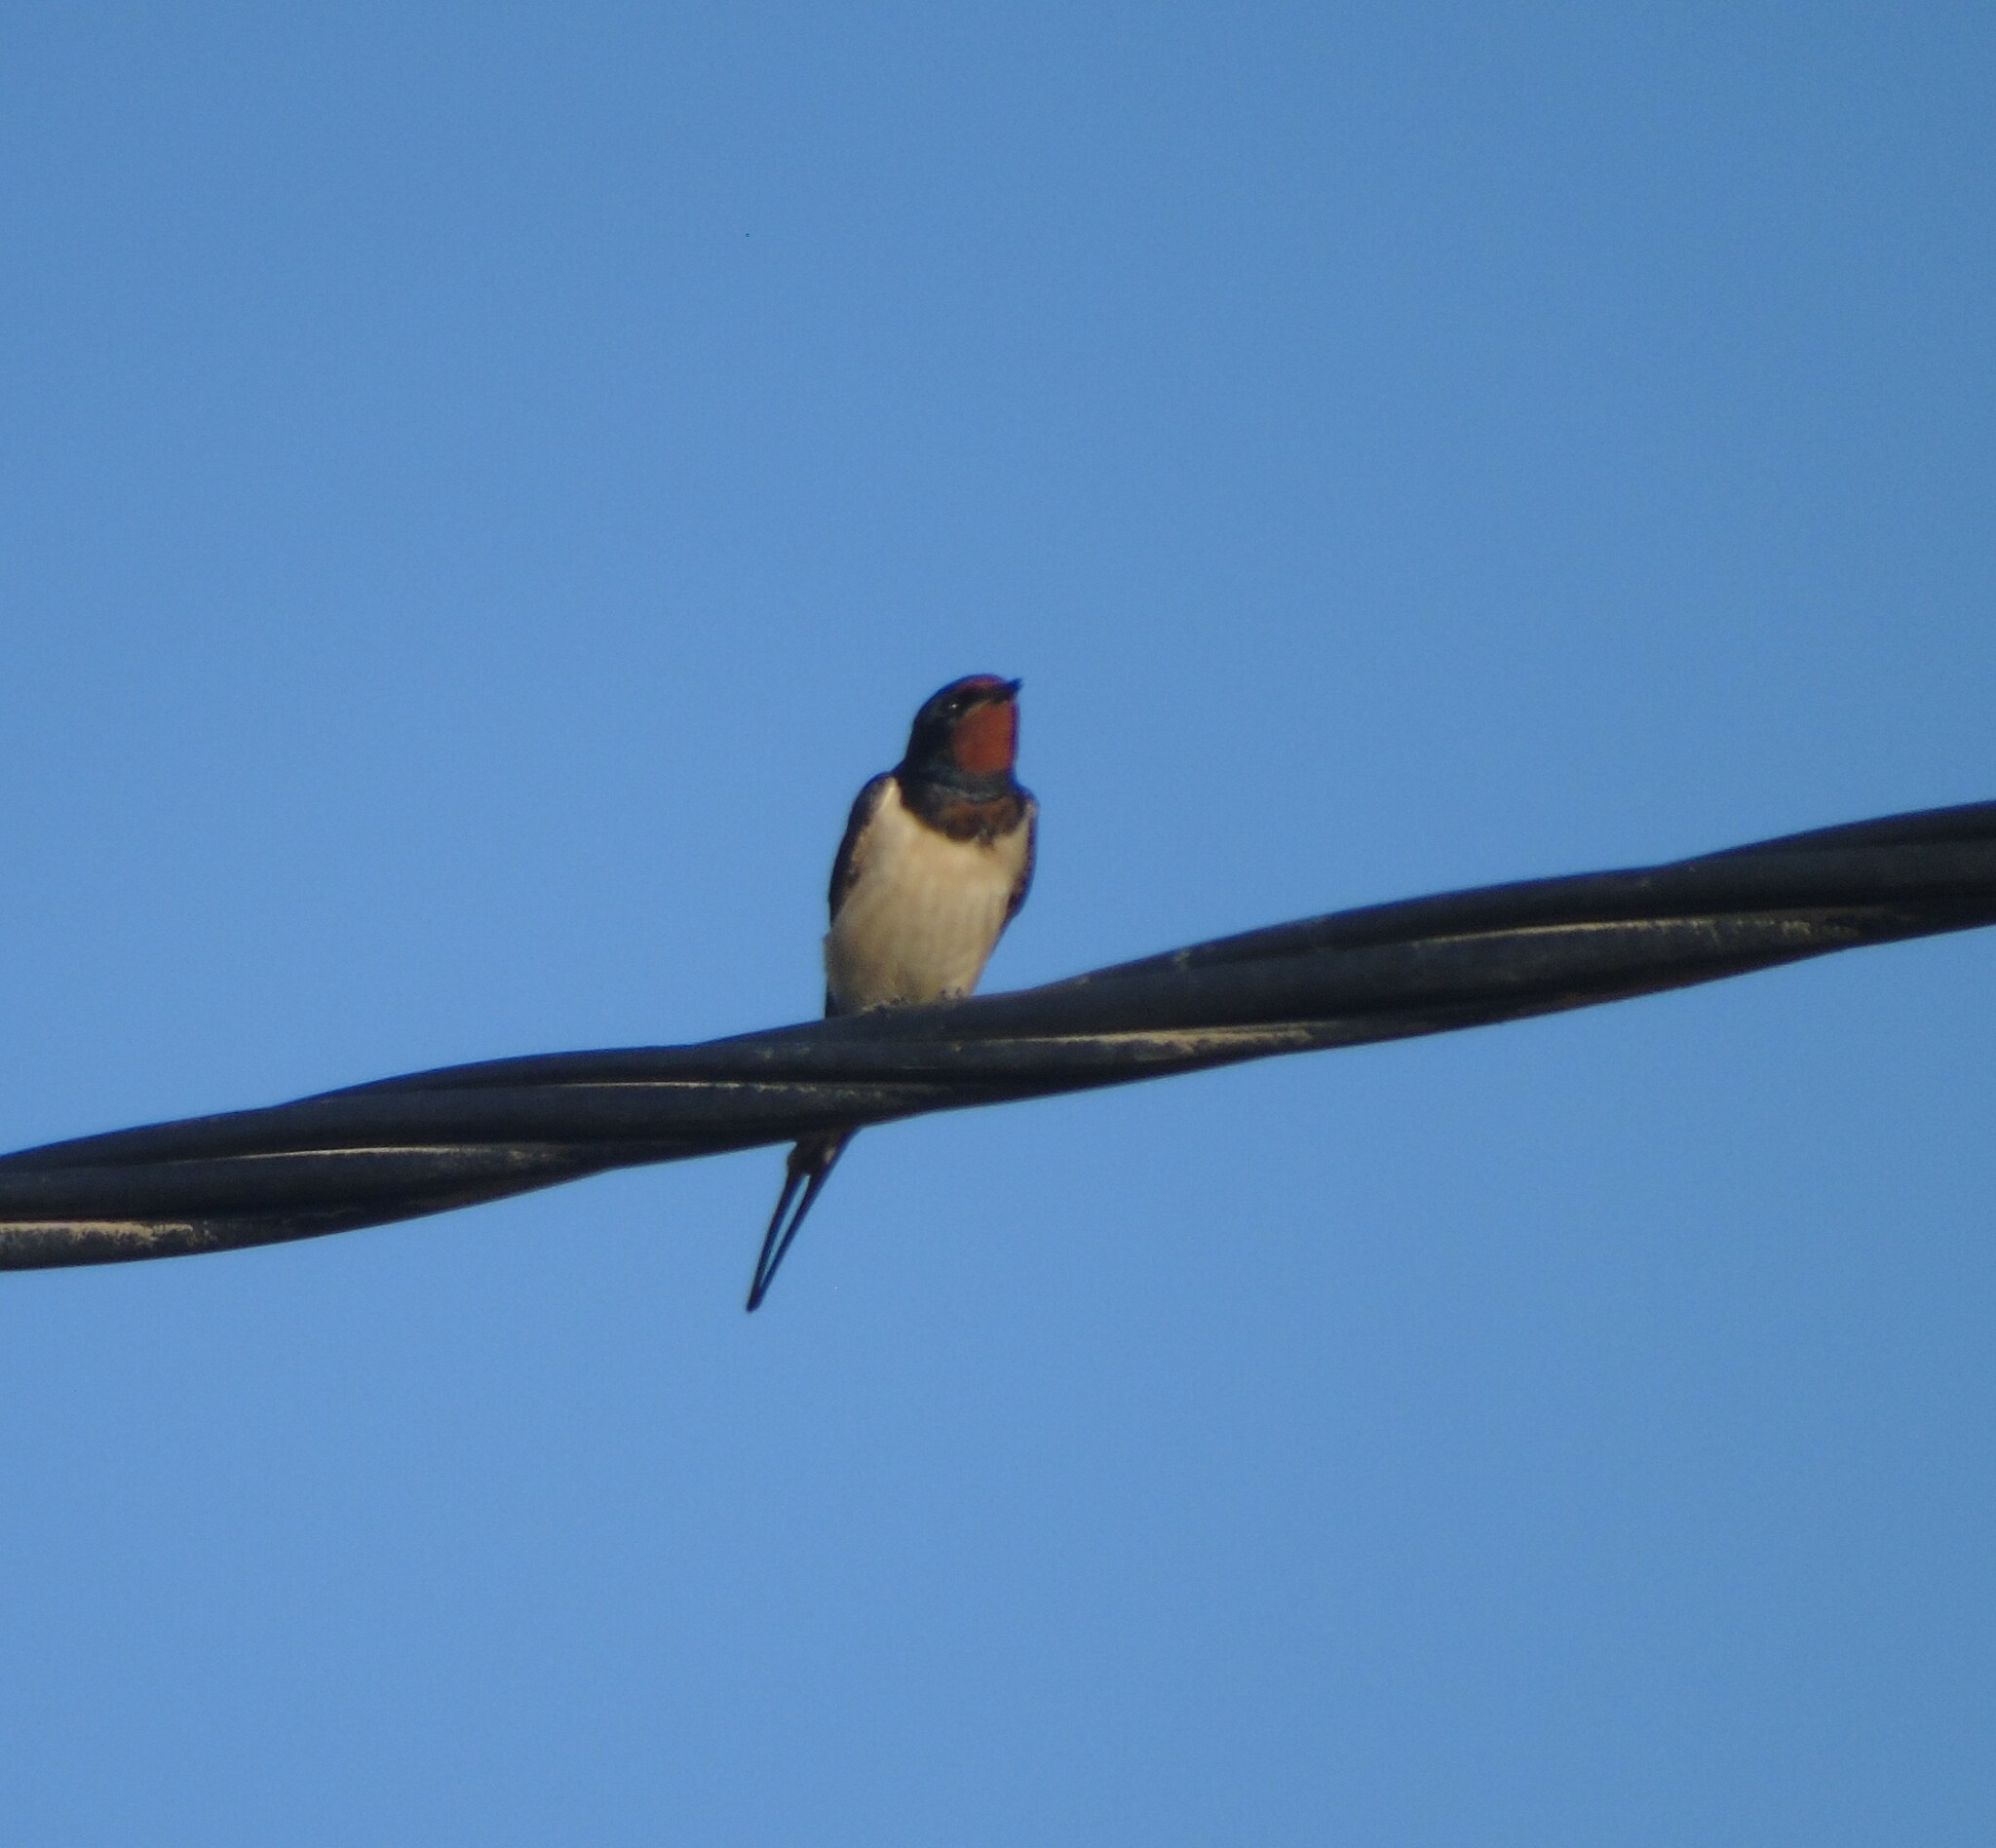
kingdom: Animalia
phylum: Chordata
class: Aves
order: Passeriformes
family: Hirundinidae
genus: Hirundo
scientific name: Hirundo rustica
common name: Barn swallow
